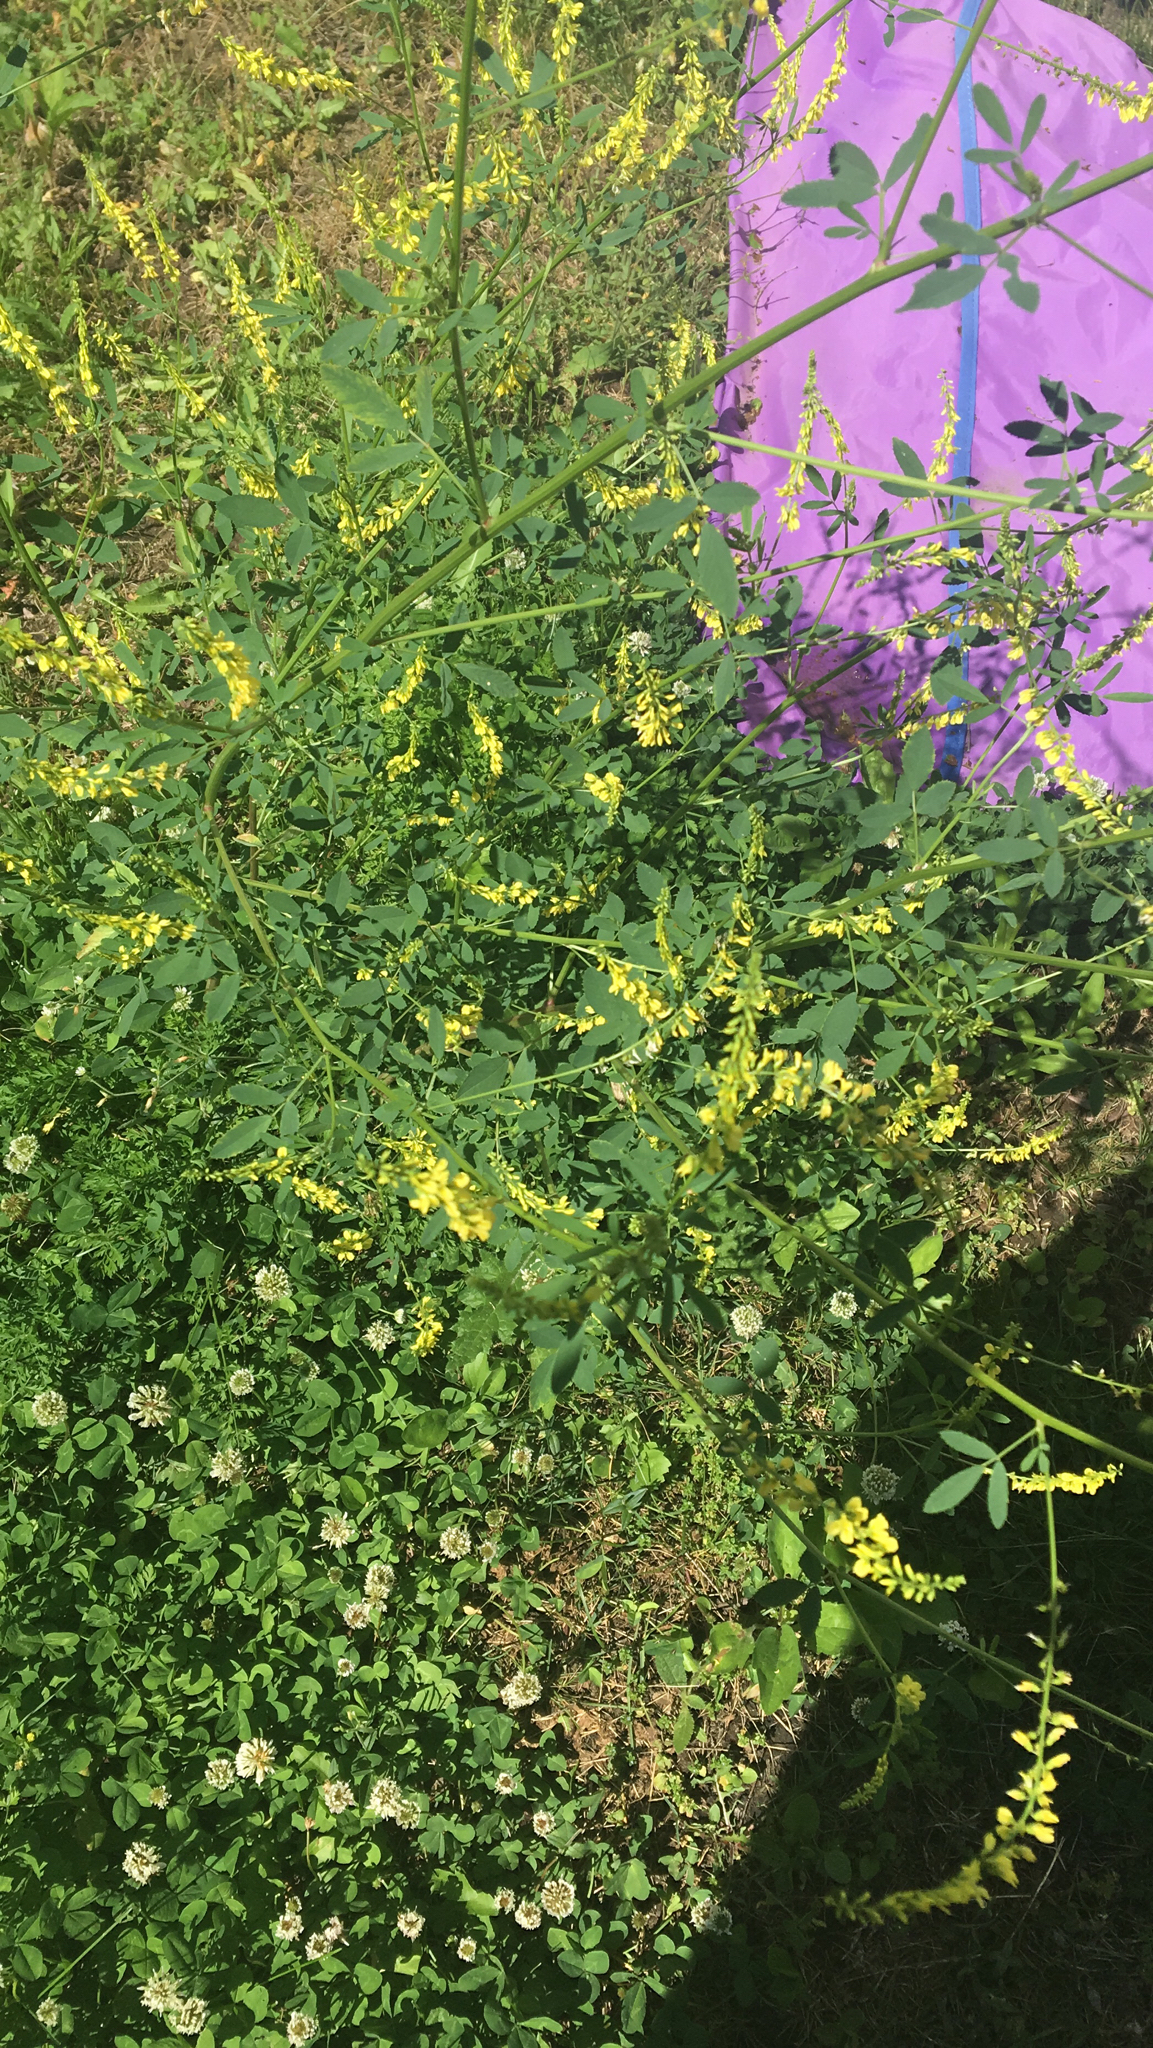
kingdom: Plantae
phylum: Tracheophyta
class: Magnoliopsida
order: Fabales
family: Fabaceae
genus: Melilotus
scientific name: Melilotus officinalis
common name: Sweetclover
